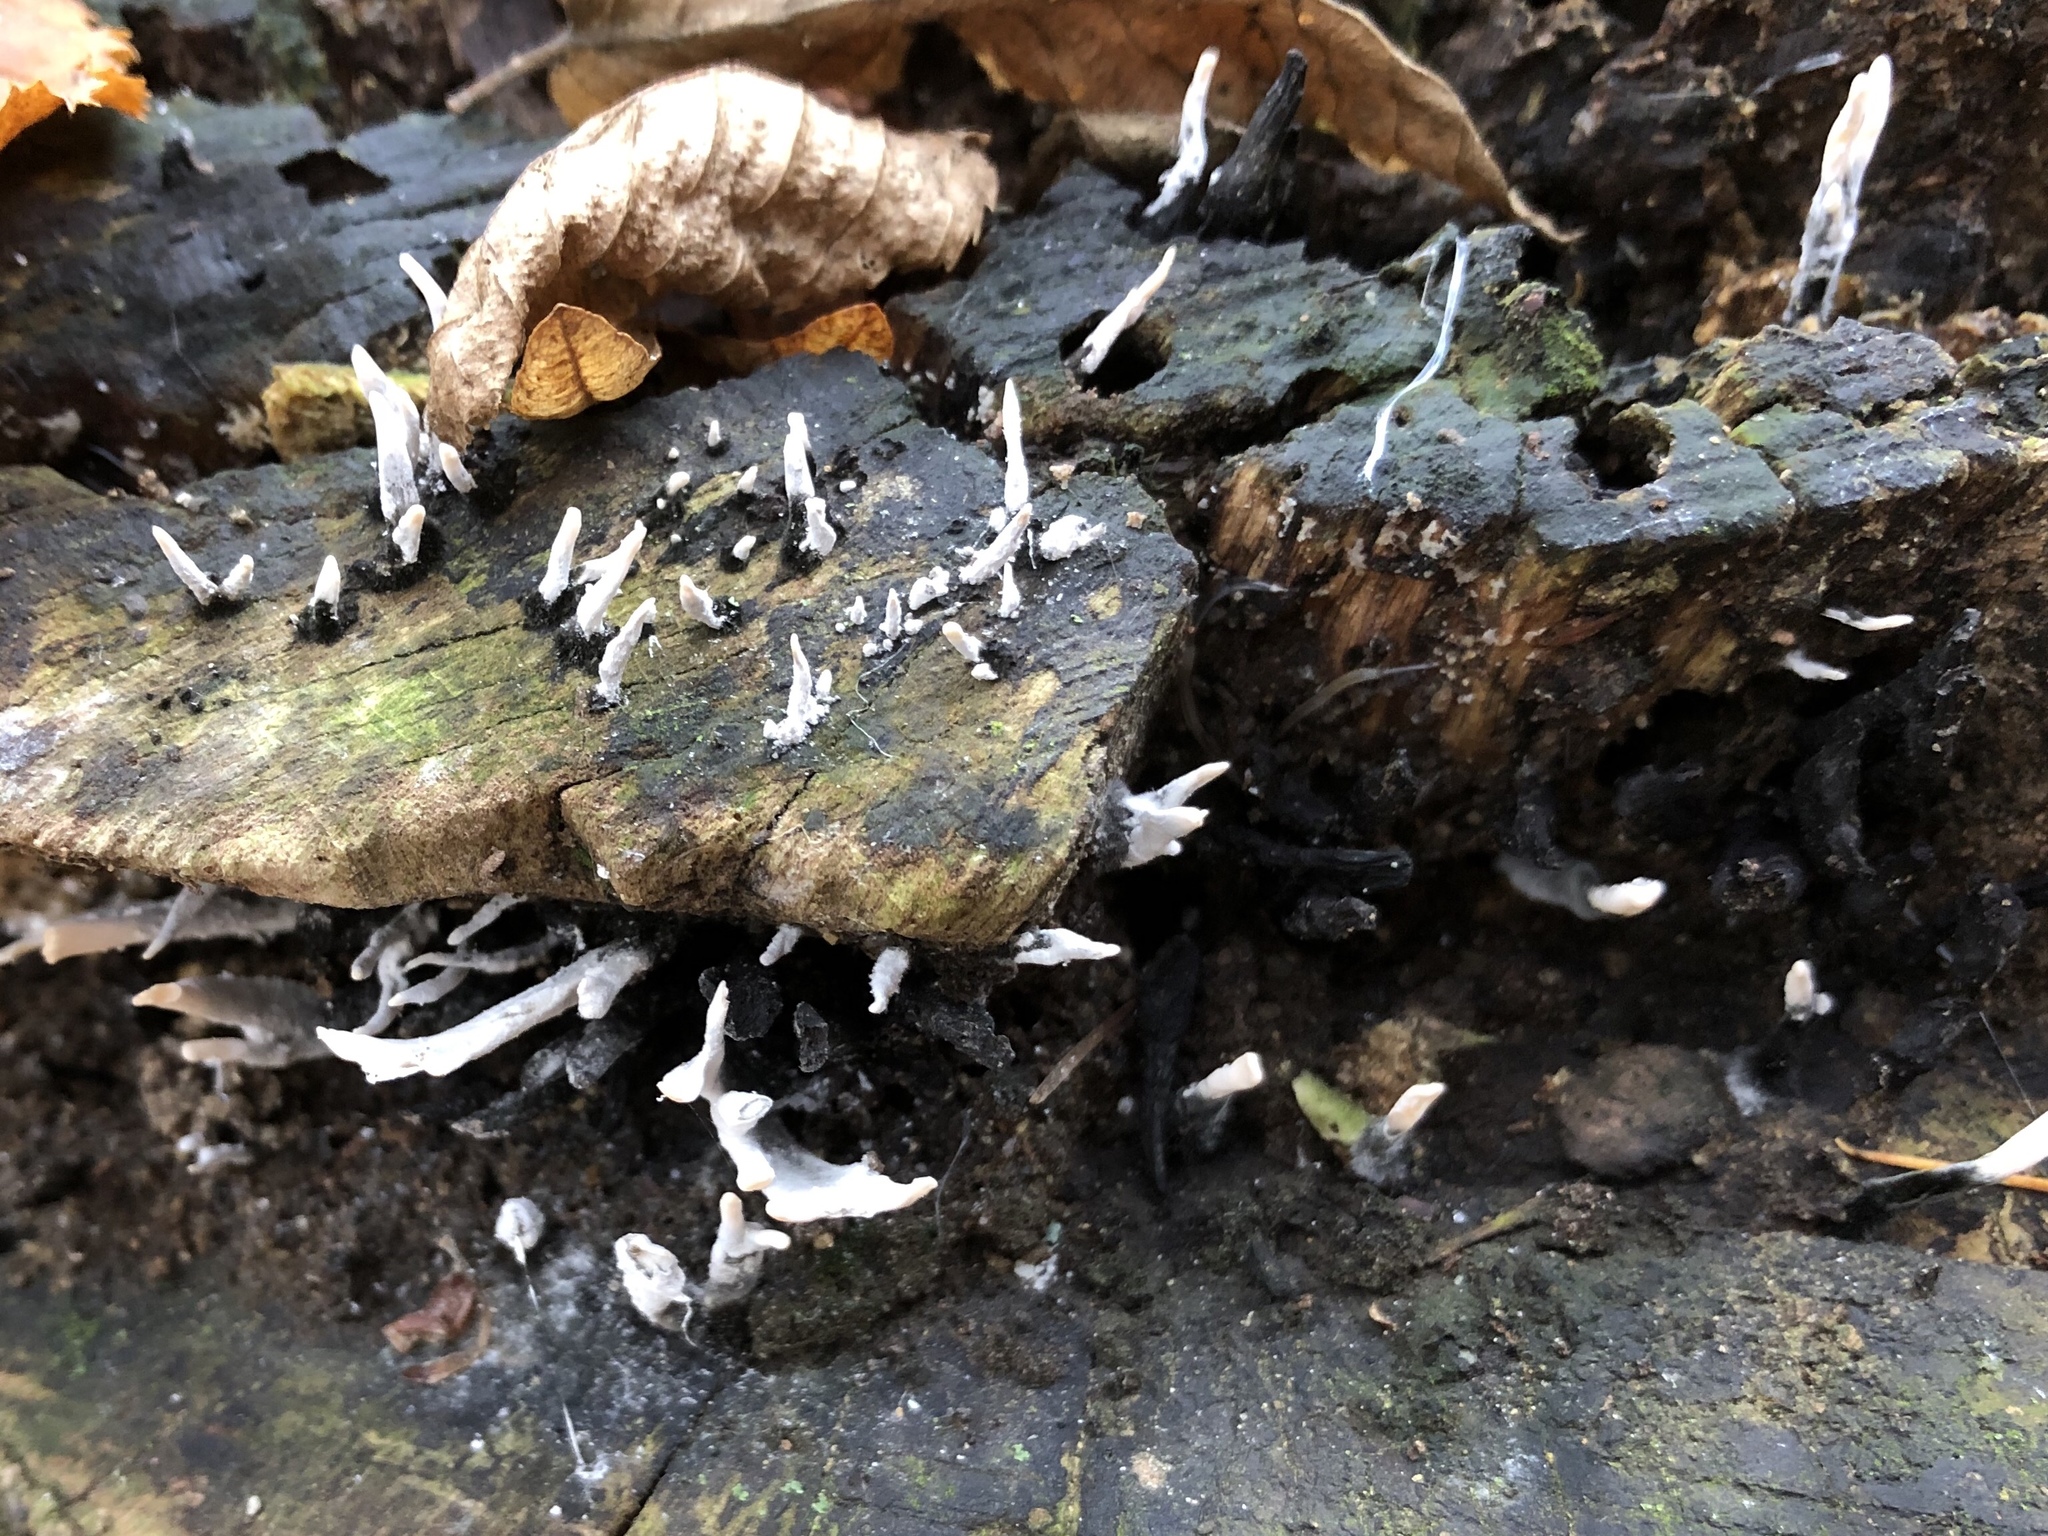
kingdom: Fungi
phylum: Ascomycota
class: Sordariomycetes
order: Xylariales
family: Xylariaceae
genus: Xylaria
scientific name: Xylaria hypoxylon
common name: Candle-snuff fungus
